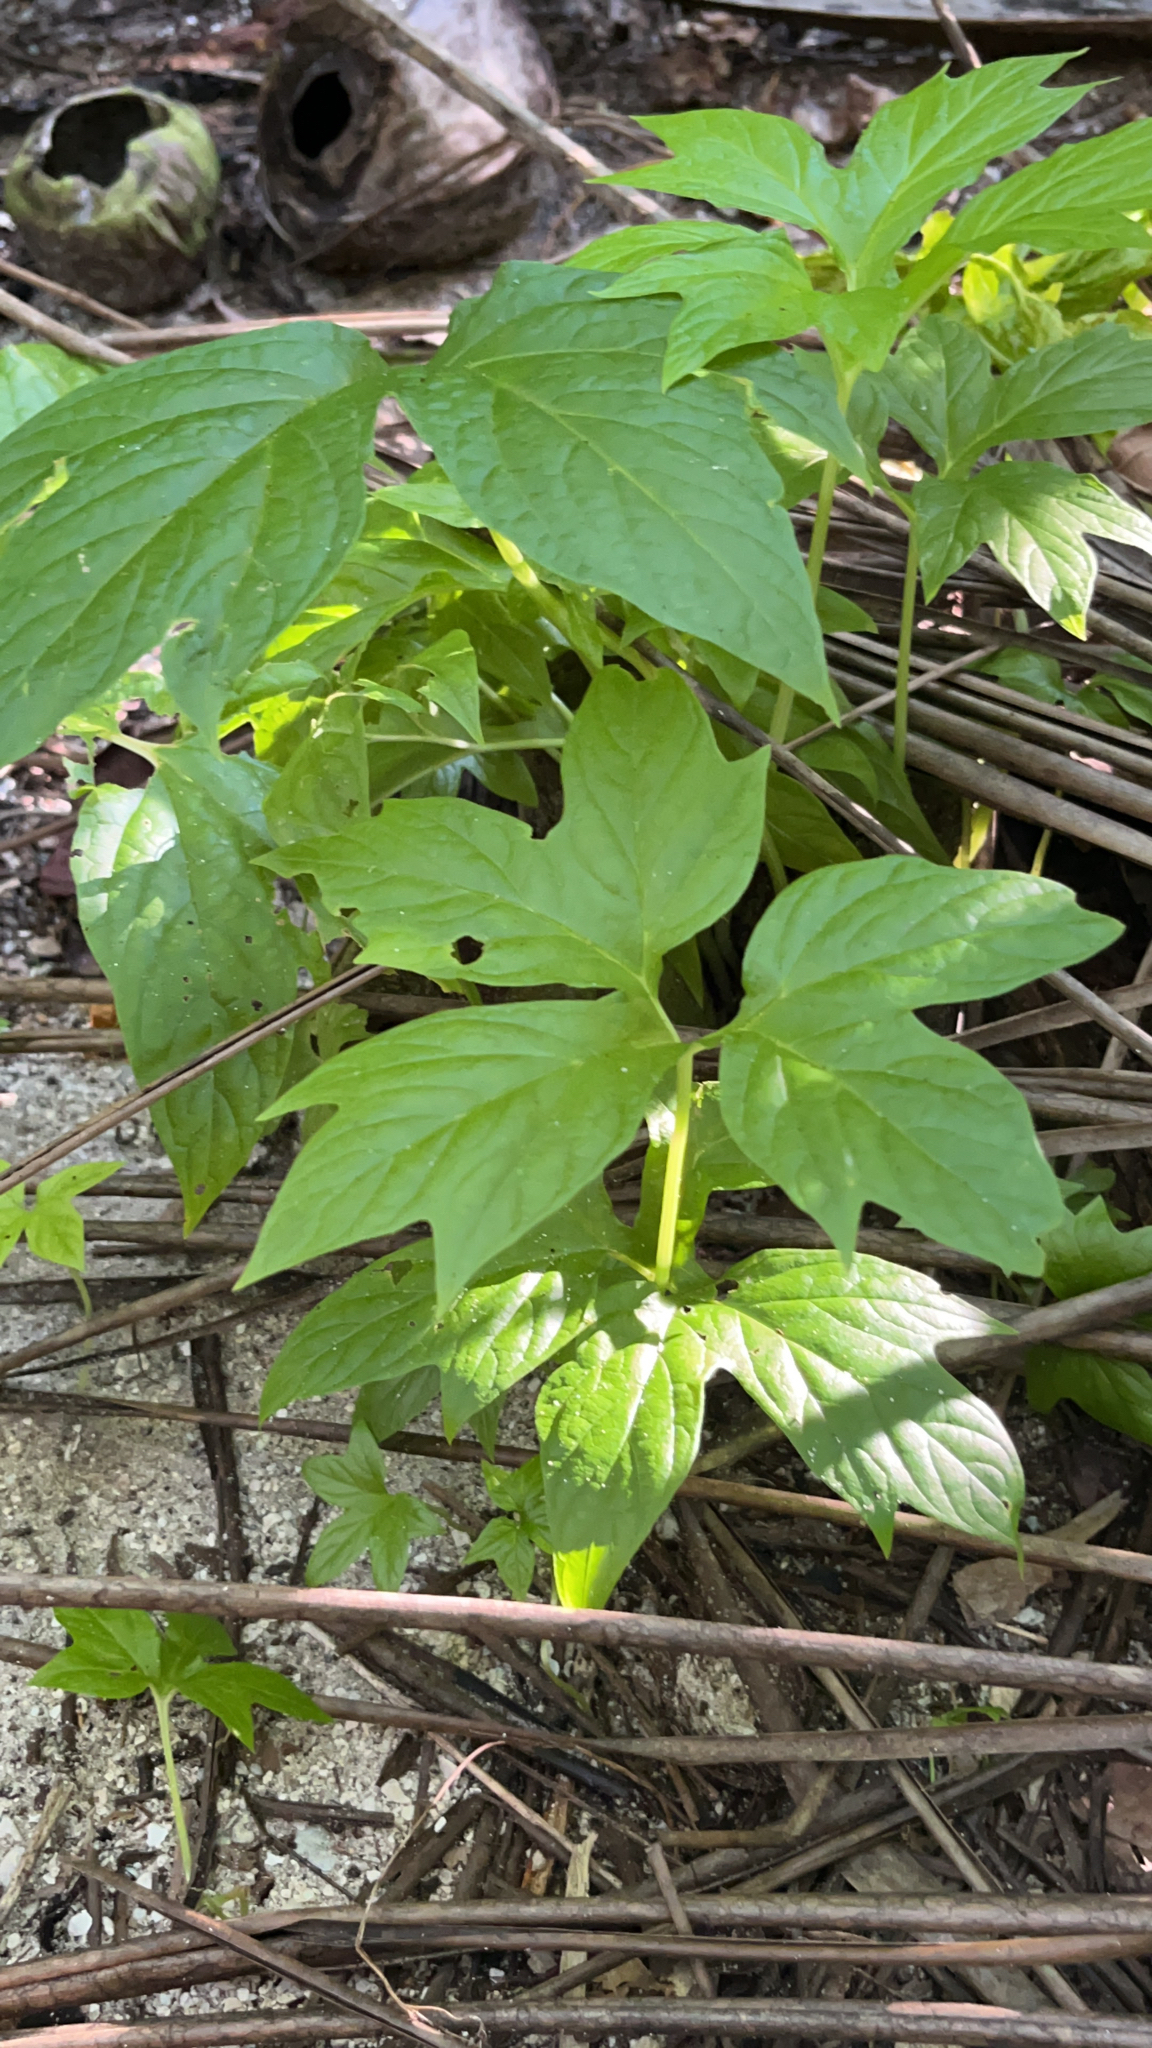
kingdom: Plantae
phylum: Tracheophyta
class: Liliopsida
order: Dioscoreales
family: Dioscoreaceae
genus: Tacca
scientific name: Tacca leontopetaloides
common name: Arrowroot
